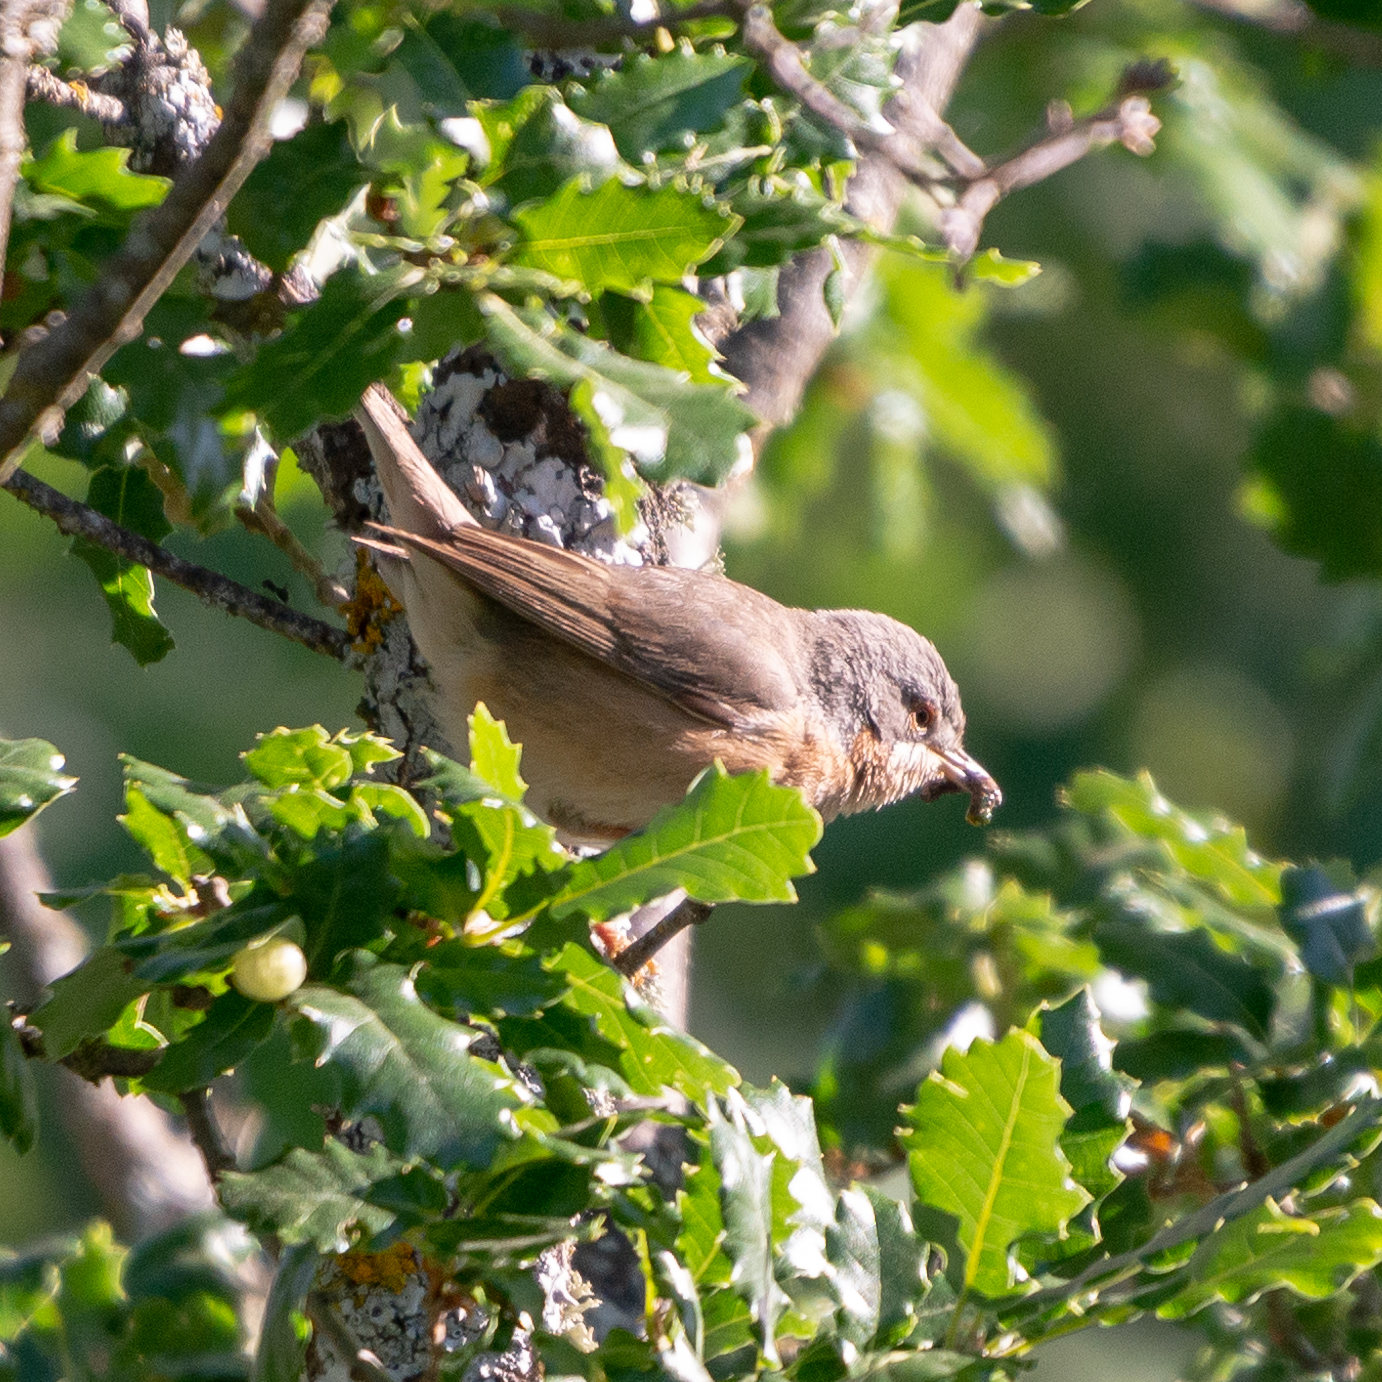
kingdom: Animalia
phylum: Chordata
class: Aves
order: Passeriformes
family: Sylviidae
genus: Curruca
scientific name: Curruca iberiae
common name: Western subalpine warbler
